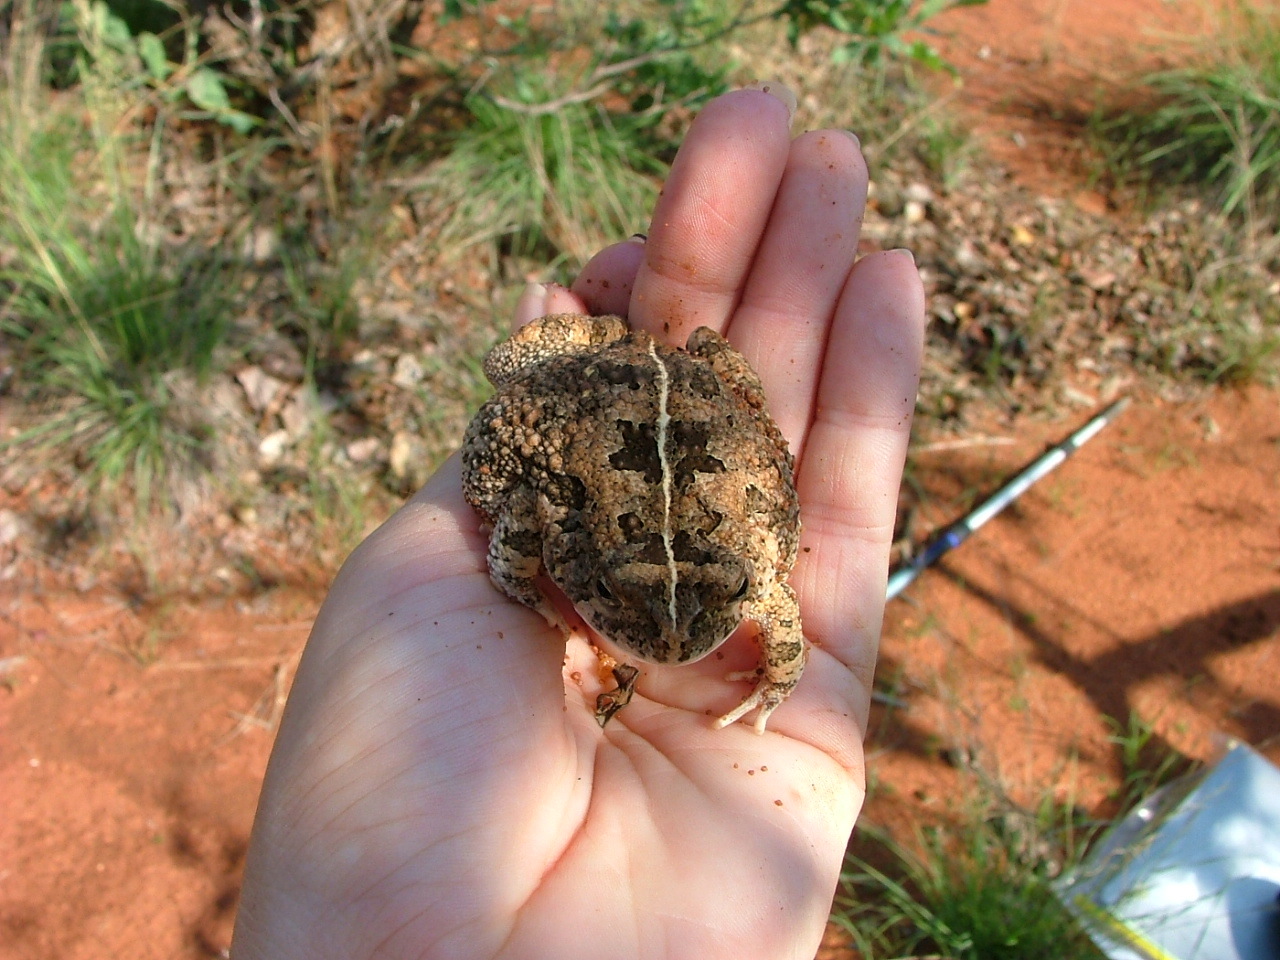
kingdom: Animalia
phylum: Chordata
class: Amphibia
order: Anura
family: Bufonidae
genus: Sclerophrys
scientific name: Sclerophrys gutturalis
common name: African common toad
